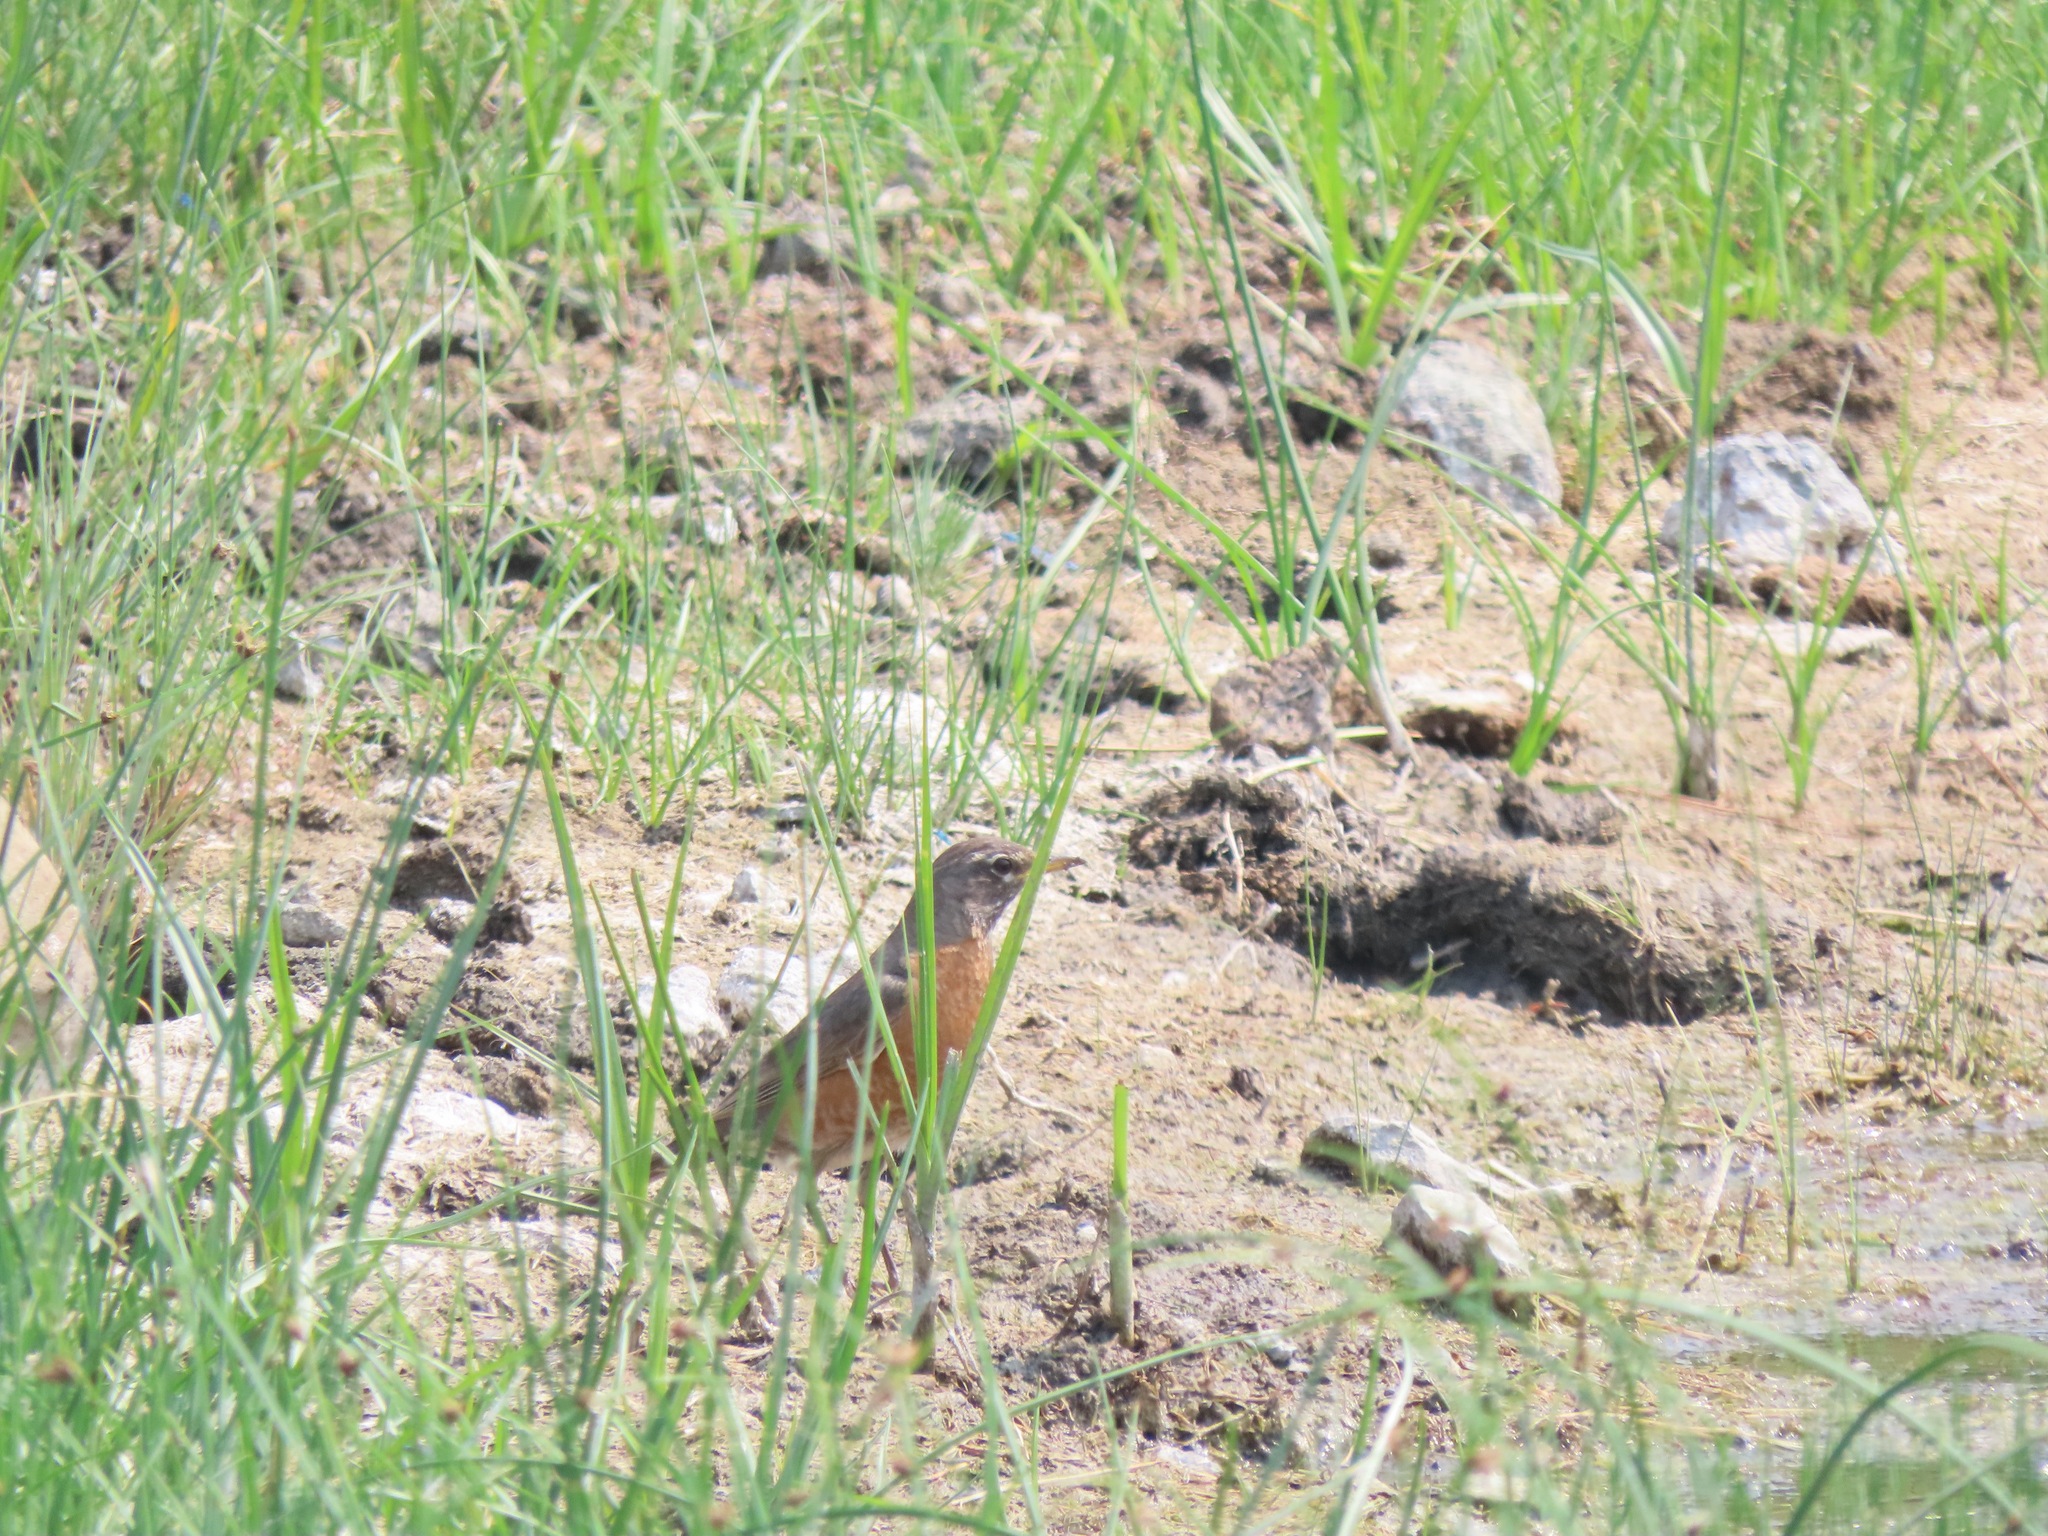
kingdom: Animalia
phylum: Chordata
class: Aves
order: Passeriformes
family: Turdidae
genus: Turdus
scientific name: Turdus migratorius
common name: American robin
